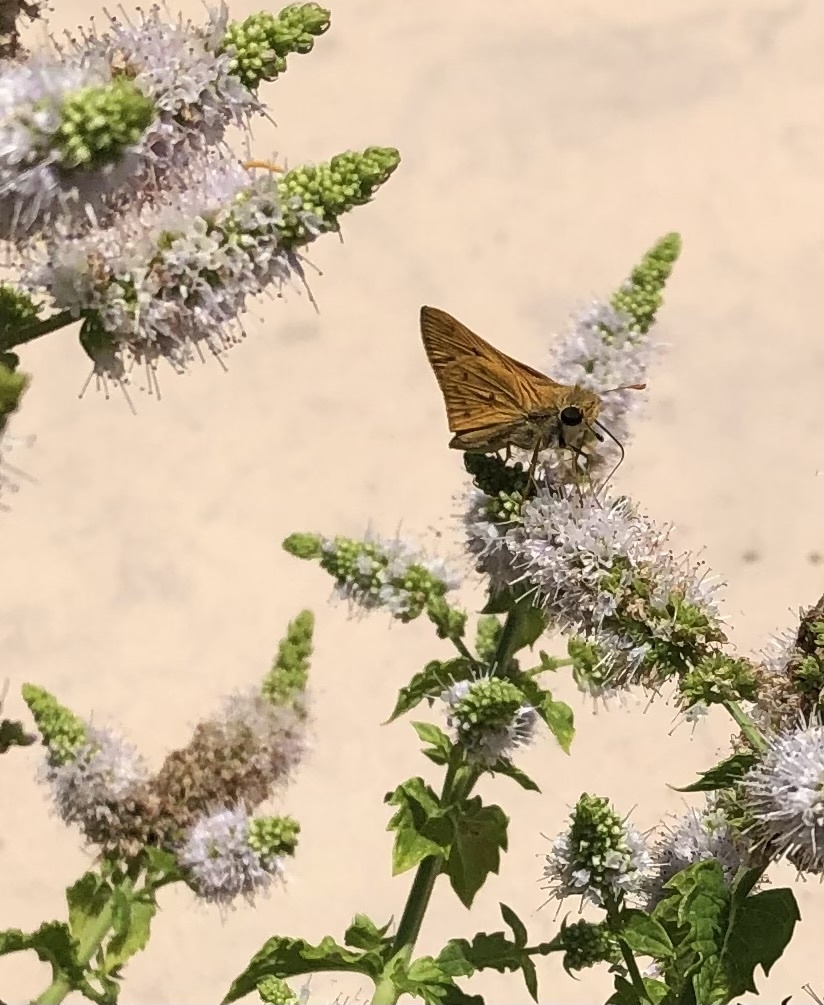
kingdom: Animalia
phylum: Arthropoda
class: Insecta
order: Lepidoptera
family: Hesperiidae
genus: Hylephila
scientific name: Hylephila phyleus
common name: Fiery skipper
